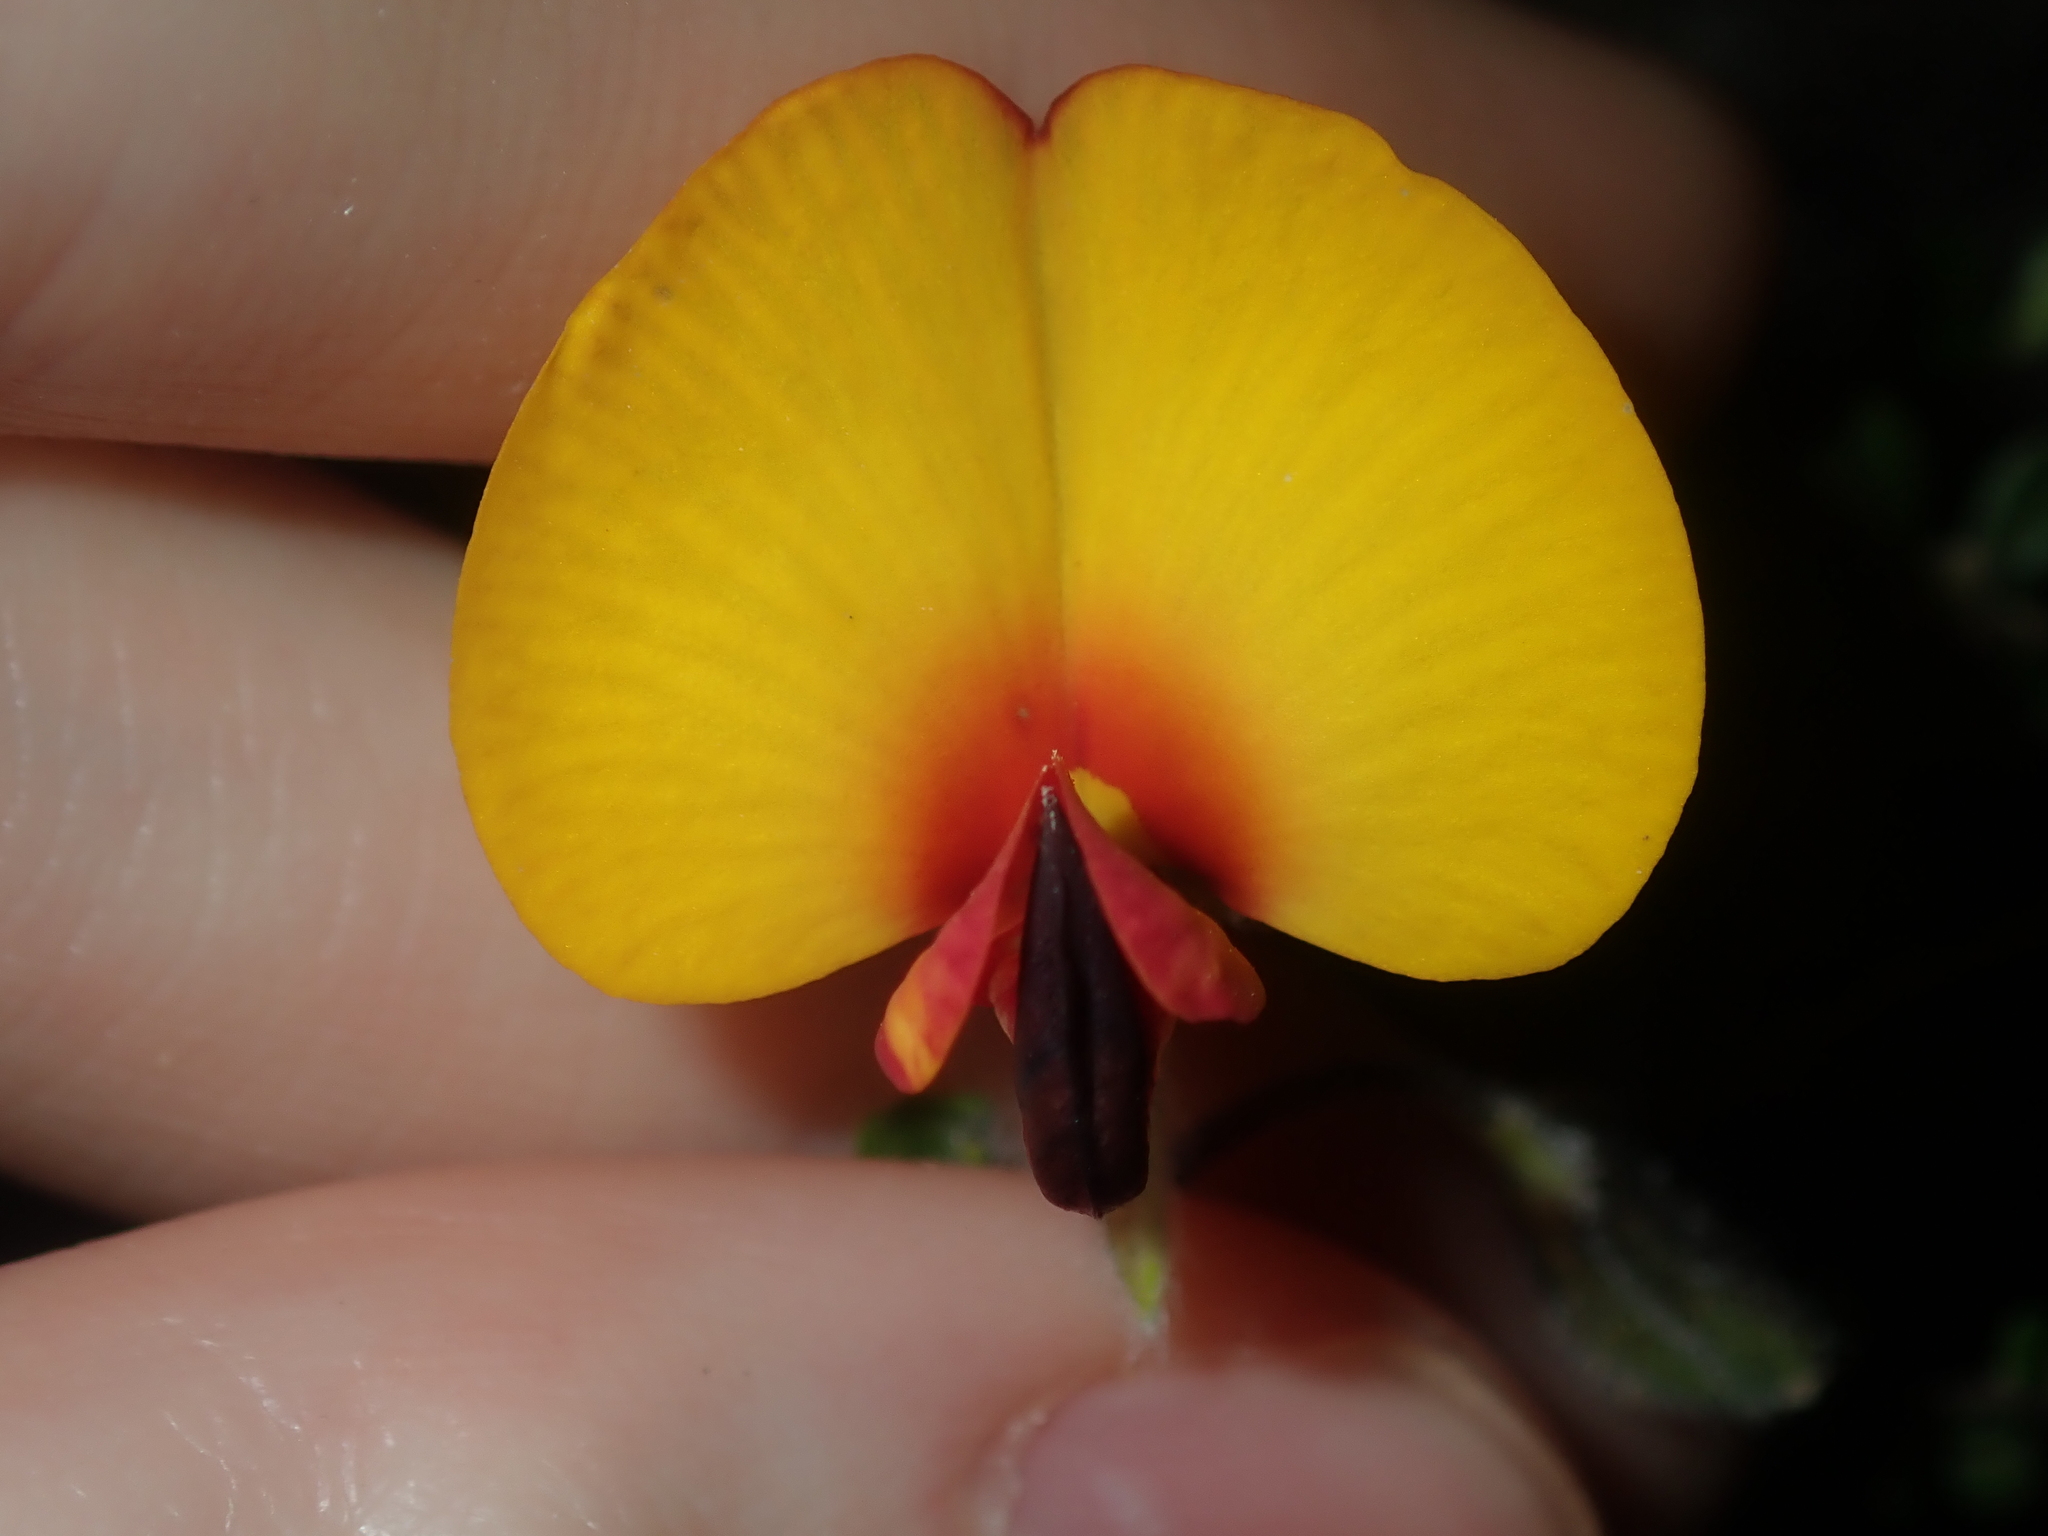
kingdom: Plantae
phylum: Tracheophyta
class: Magnoliopsida
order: Fabales
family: Fabaceae
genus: Isotropis
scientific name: Isotropis cuneifolia
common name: Granny bonnets
